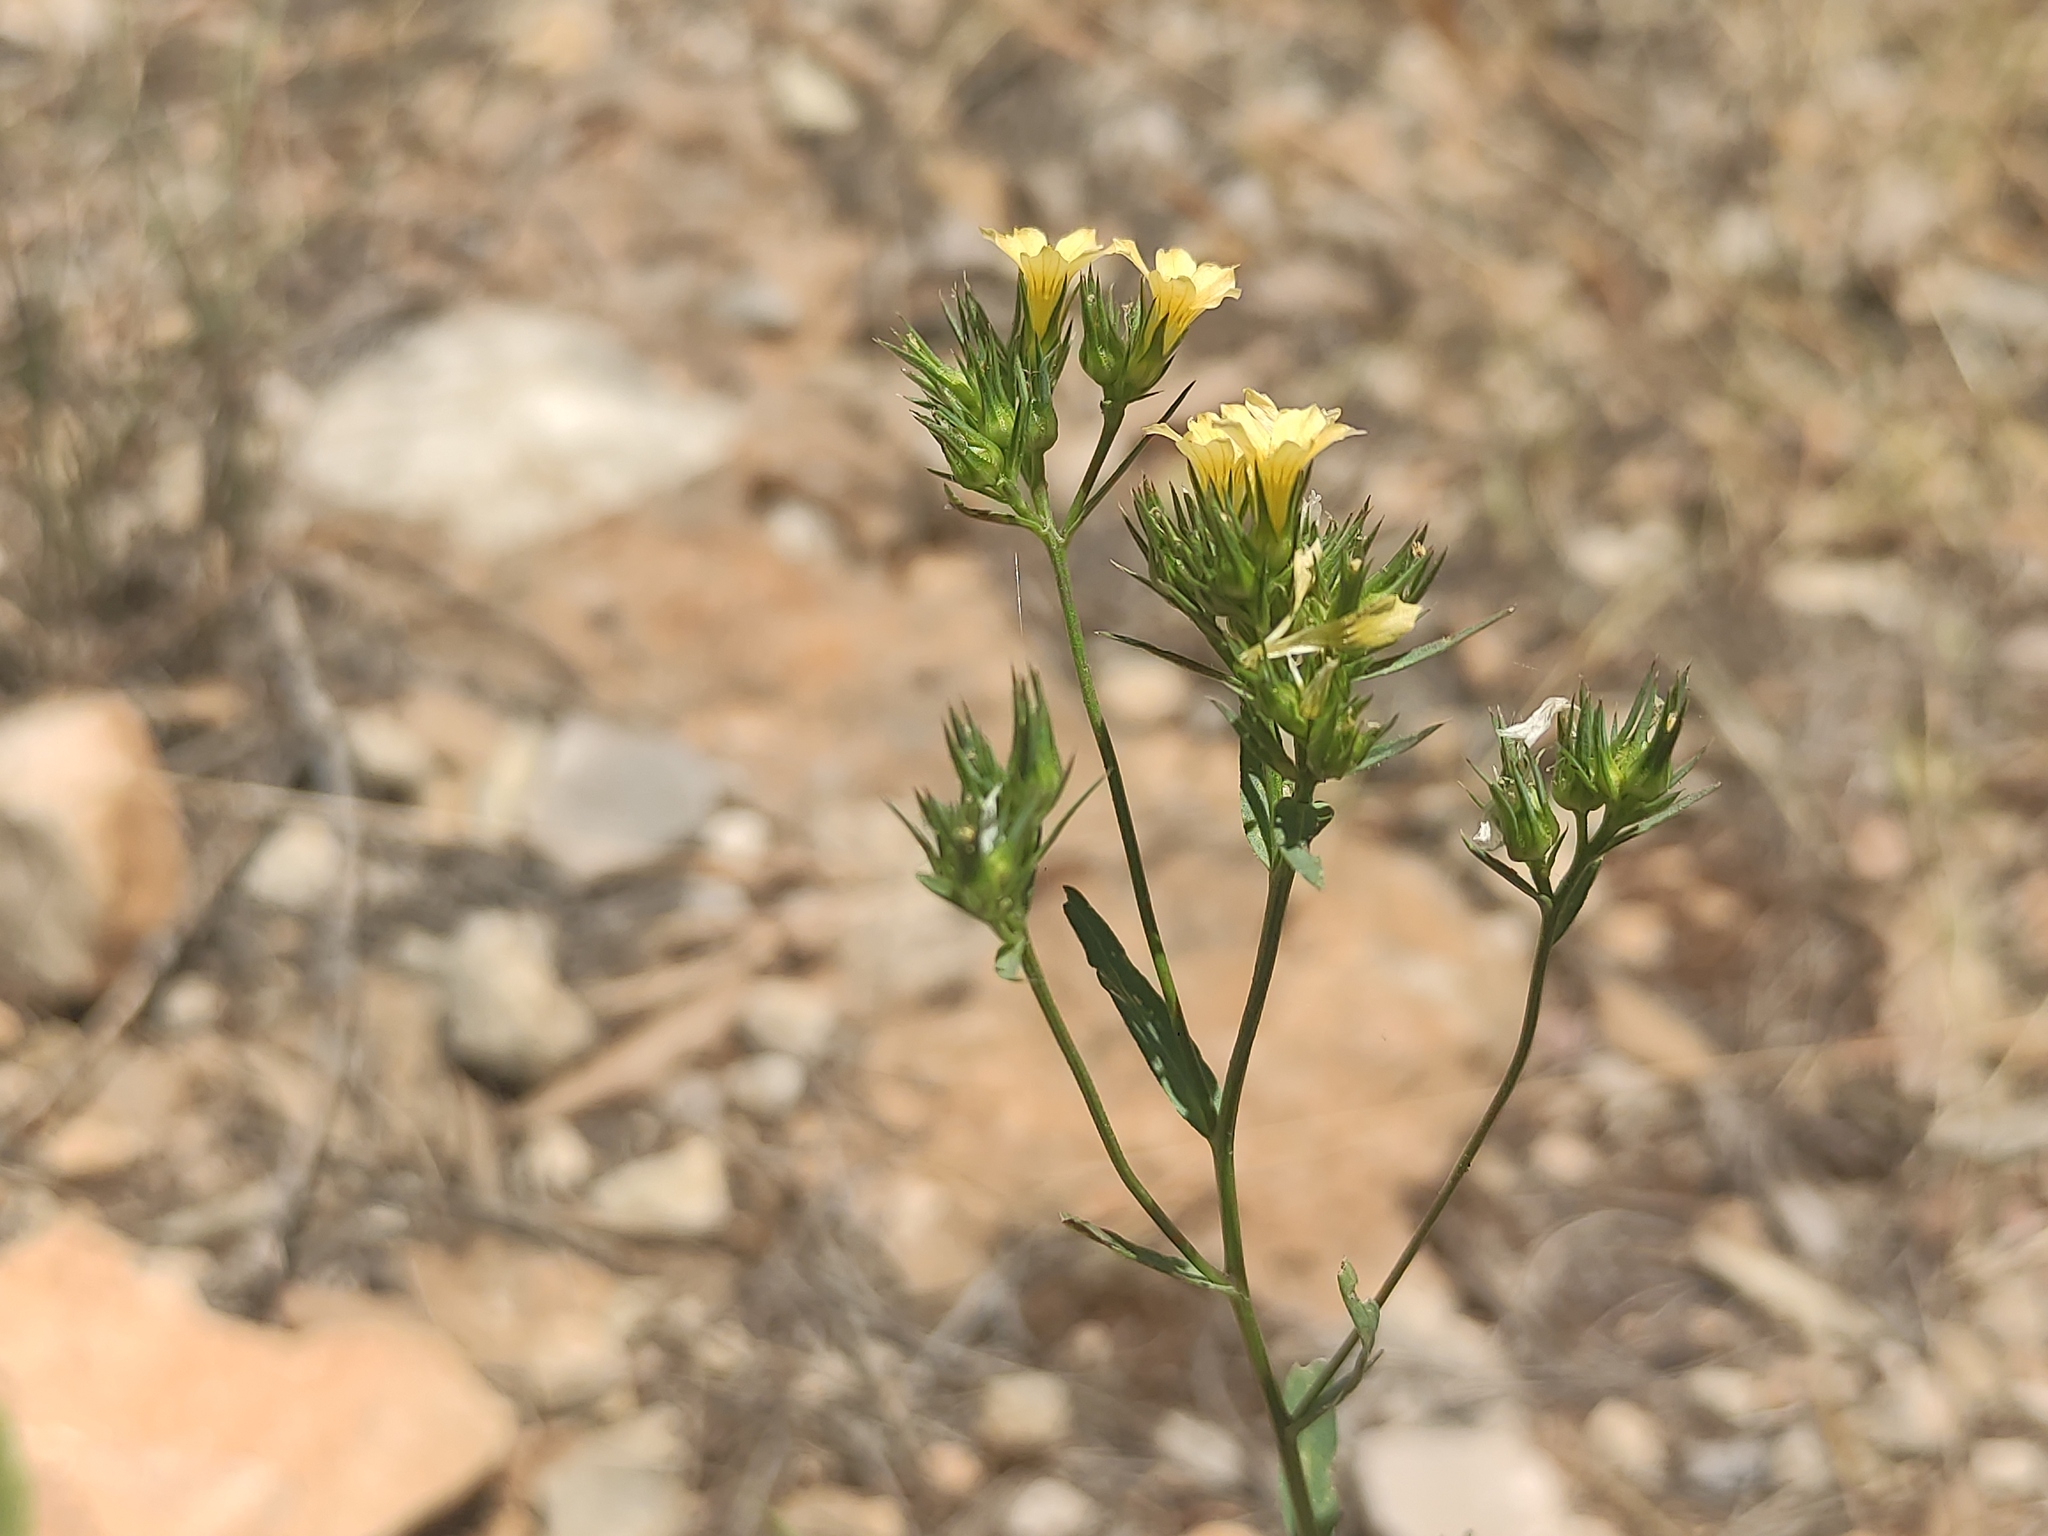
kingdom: Plantae
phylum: Tracheophyta
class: Magnoliopsida
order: Malpighiales
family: Linaceae
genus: Linum
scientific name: Linum strictum
